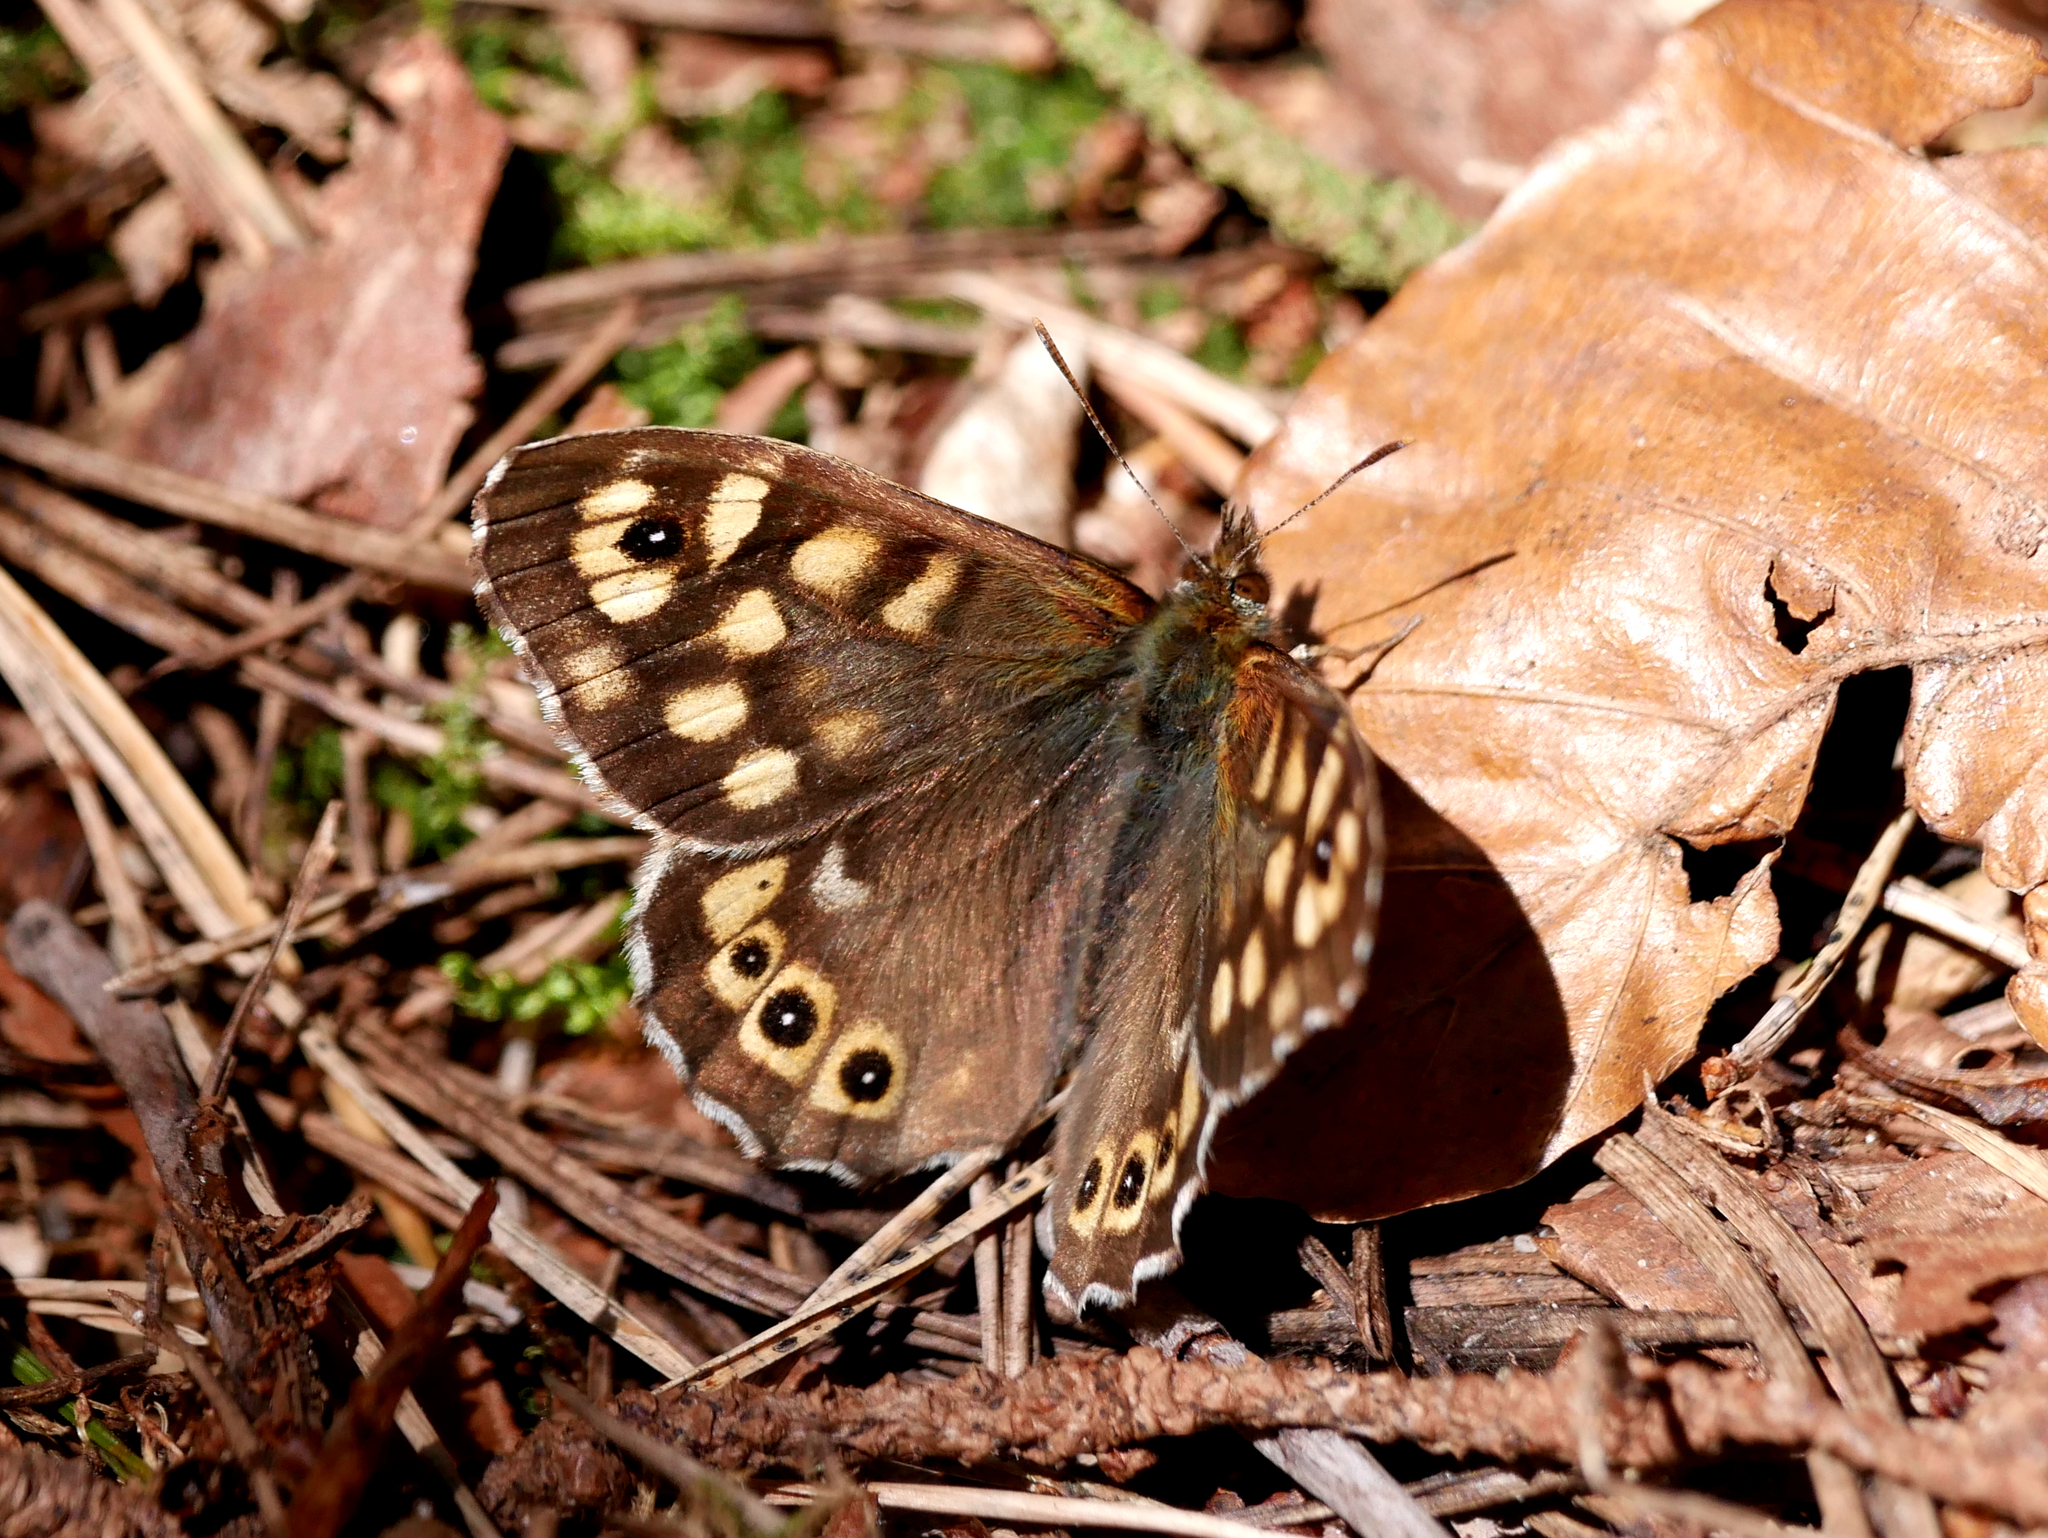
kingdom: Animalia
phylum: Arthropoda
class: Insecta
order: Lepidoptera
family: Nymphalidae
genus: Pararge
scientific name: Pararge aegeria
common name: Speckled wood
